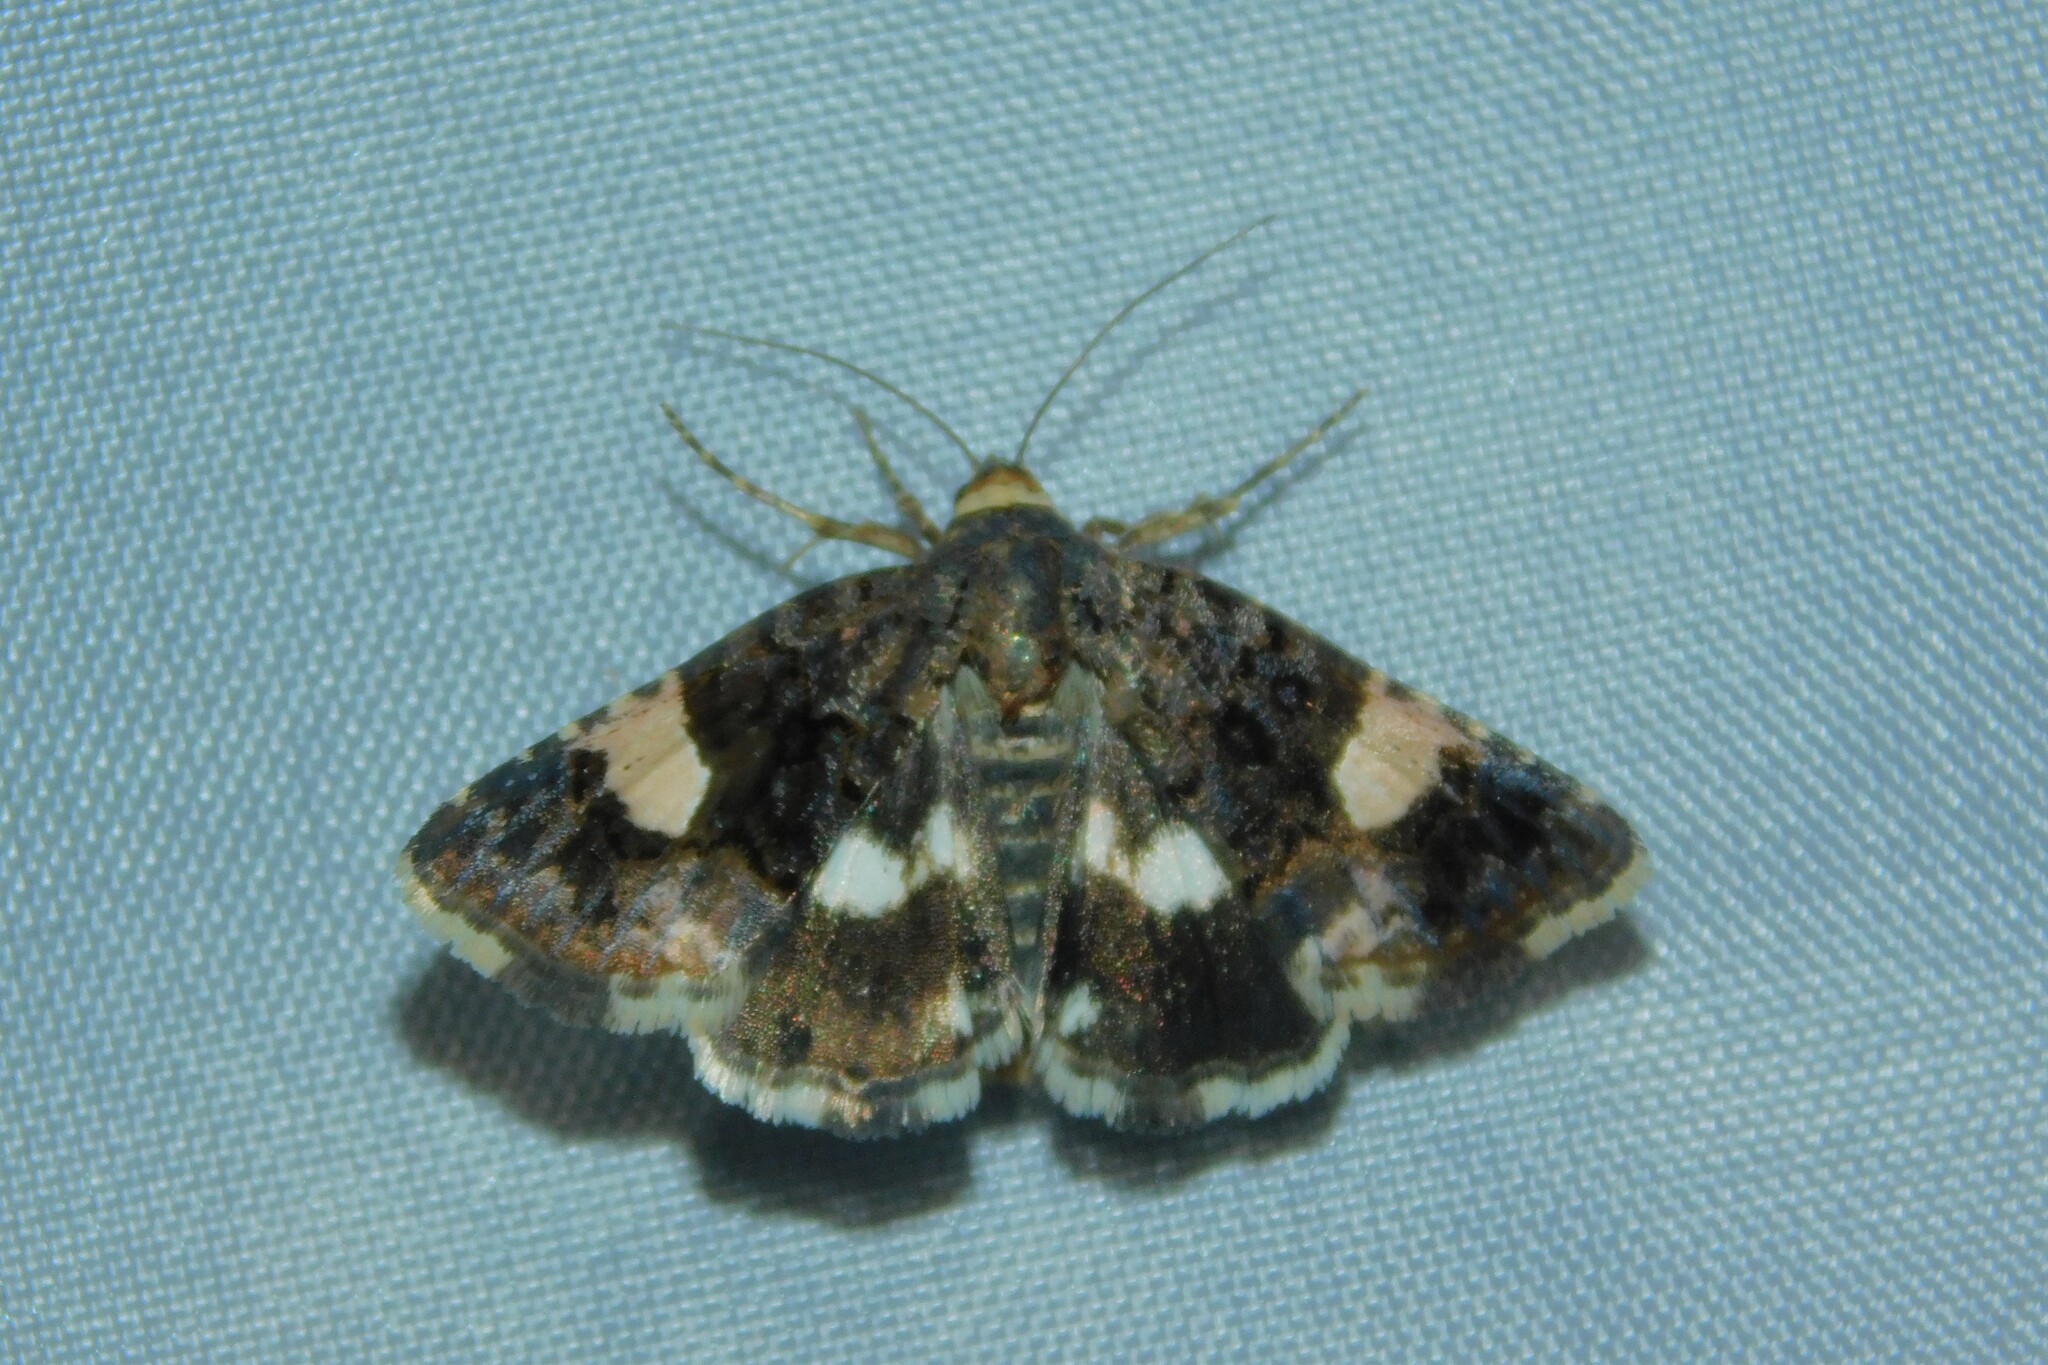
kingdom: Animalia
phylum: Arthropoda
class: Insecta
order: Lepidoptera
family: Erebidae
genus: Tyta
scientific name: Tyta luctuosa
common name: Four-spotted
